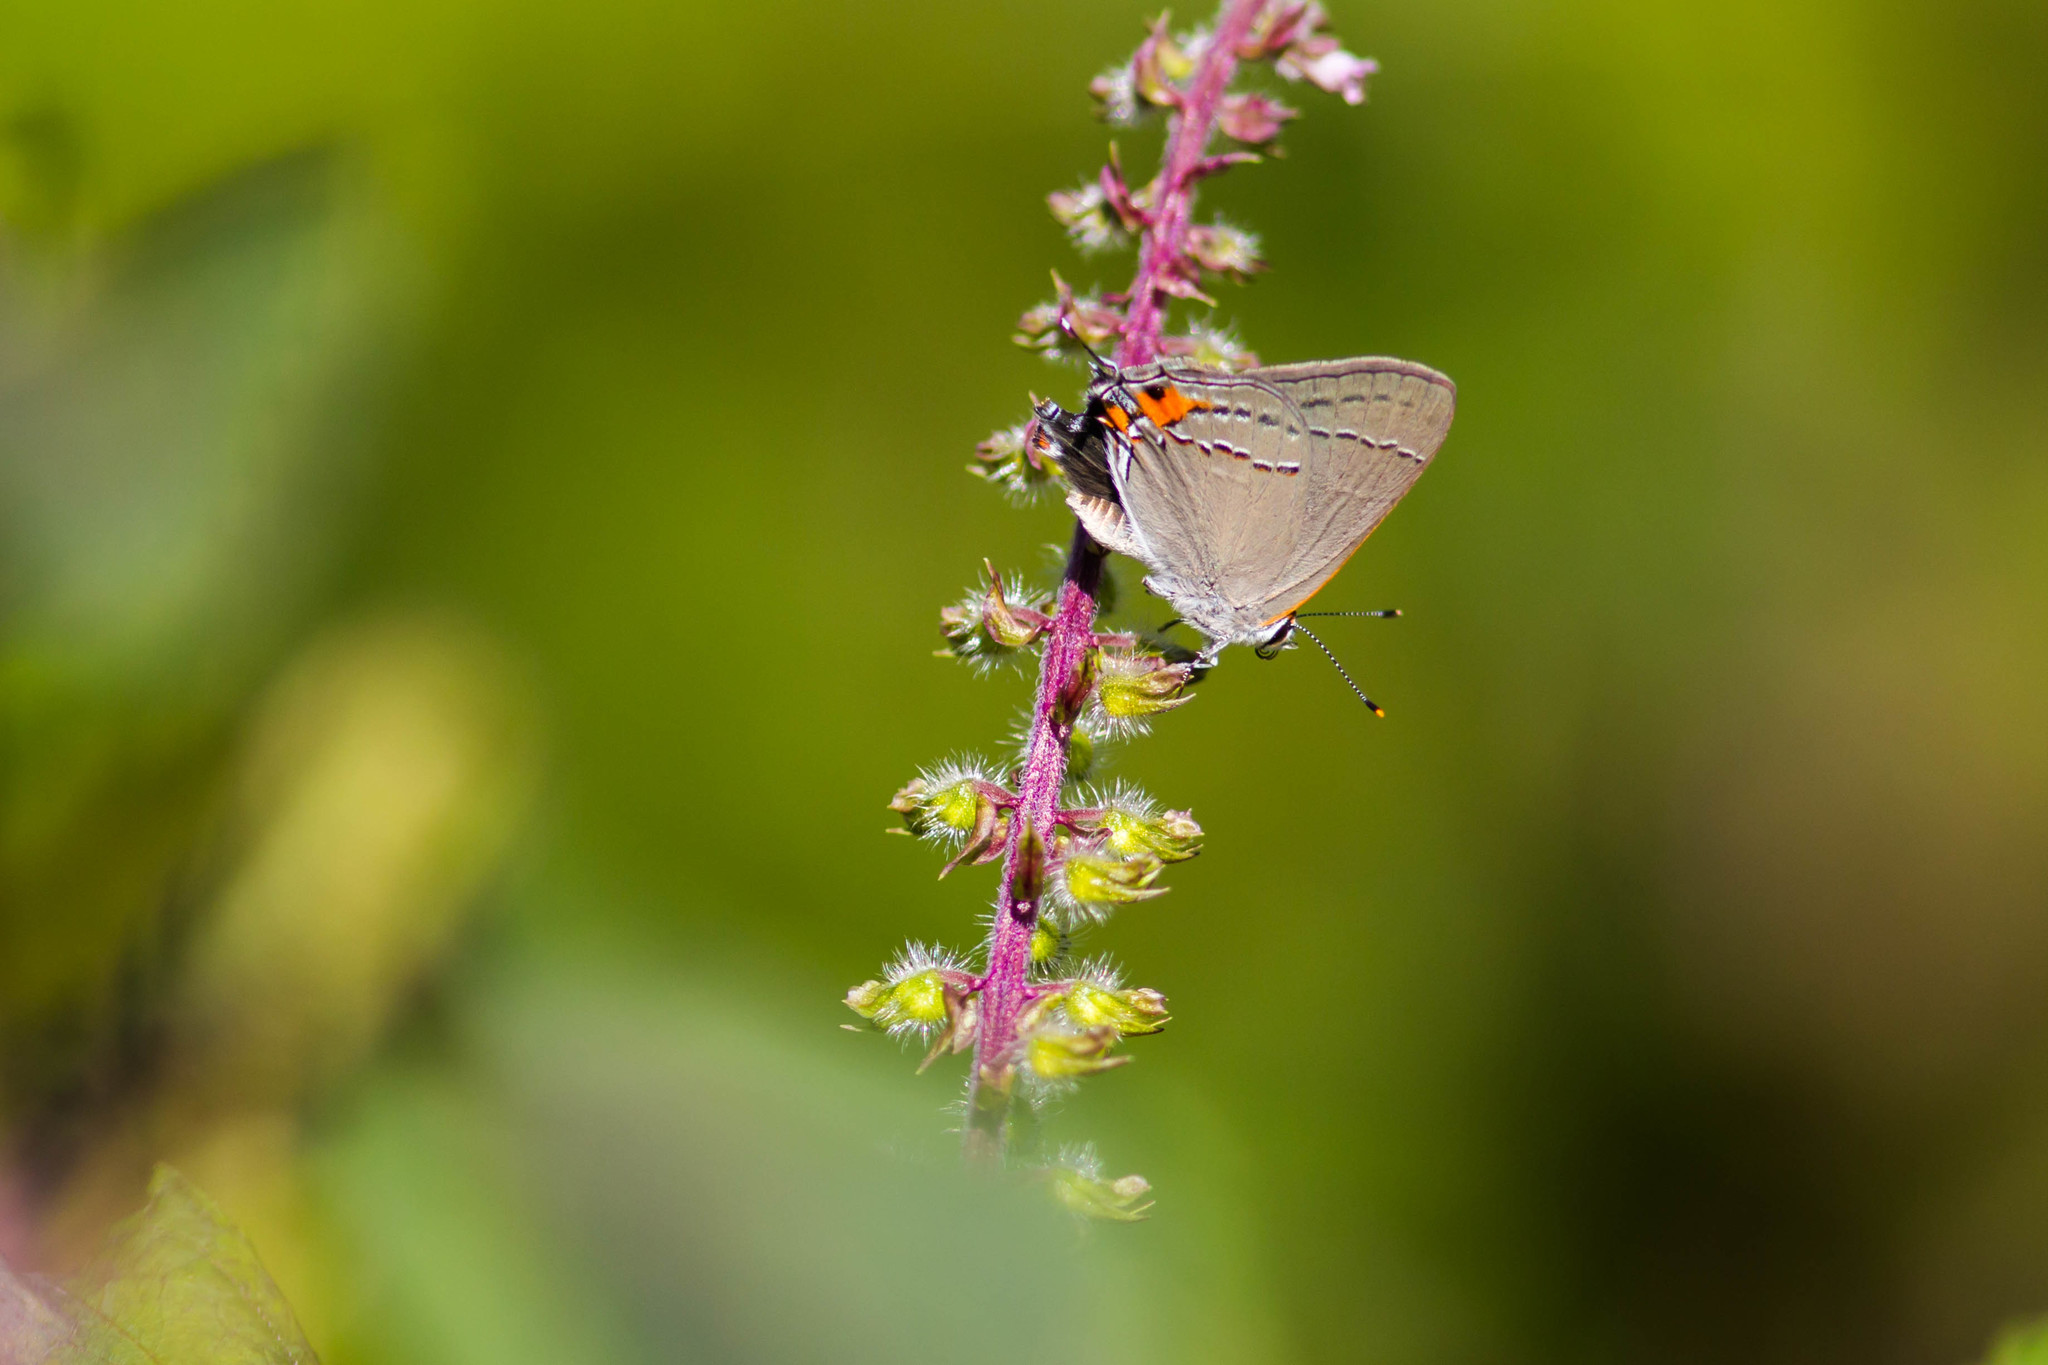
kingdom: Animalia
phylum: Arthropoda
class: Insecta
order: Lepidoptera
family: Lycaenidae
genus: Strymon
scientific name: Strymon melinus
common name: Gray hairstreak
